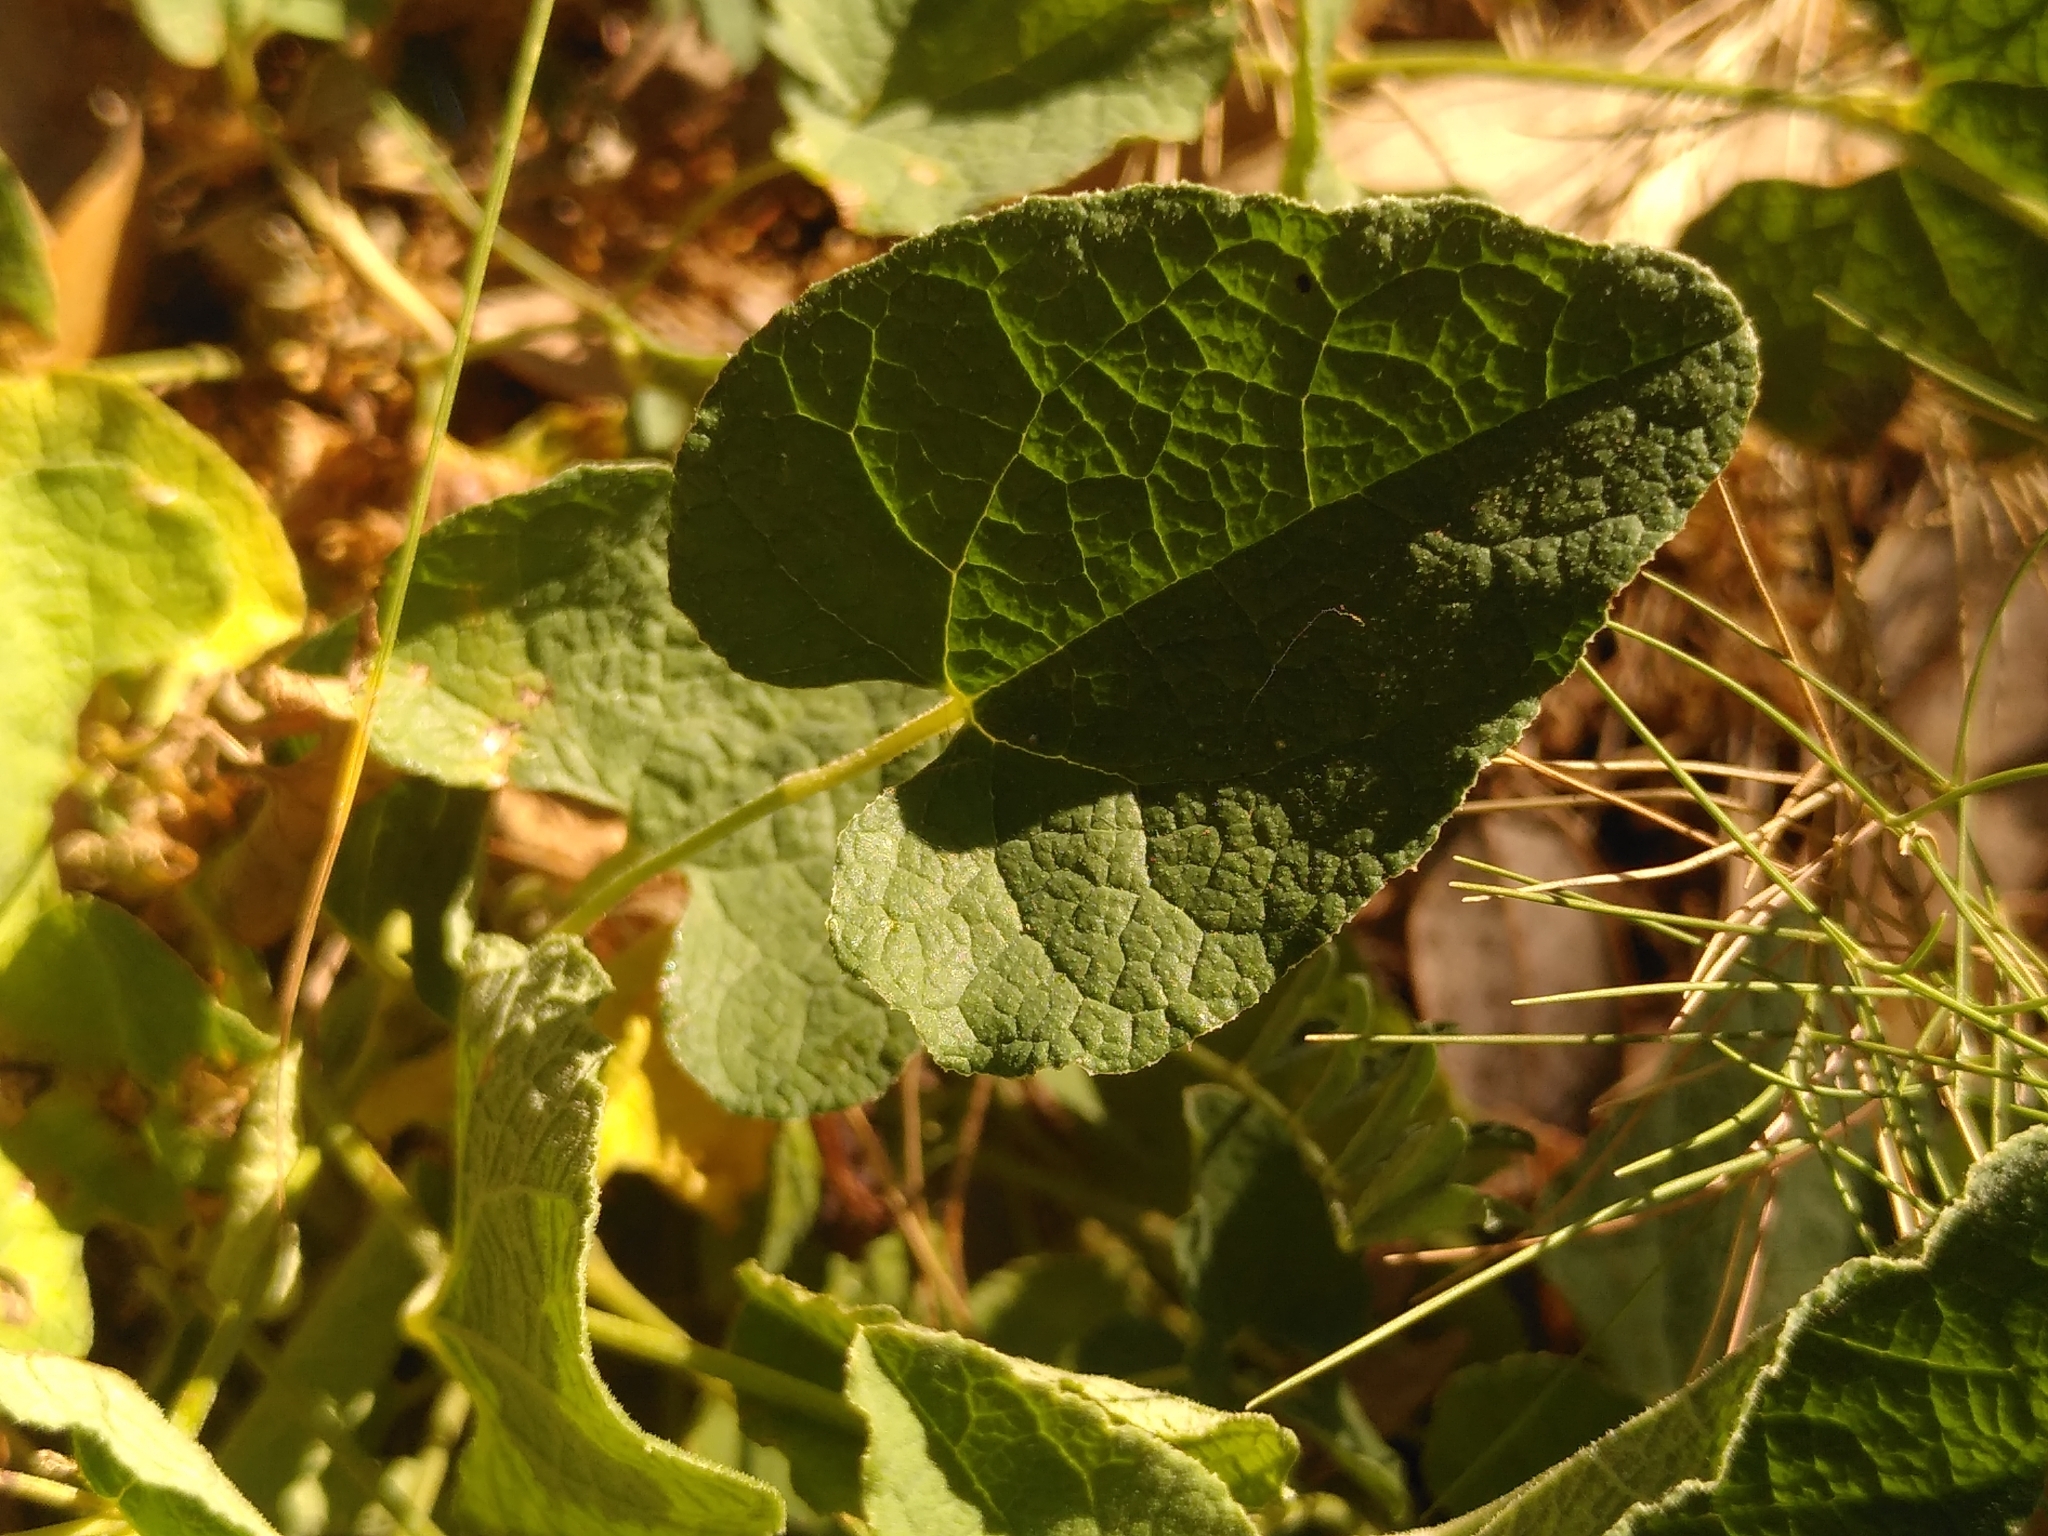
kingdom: Plantae
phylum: Tracheophyta
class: Magnoliopsida
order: Piperales
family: Aristolochiaceae
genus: Aristolochia
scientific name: Aristolochia pistolochia
